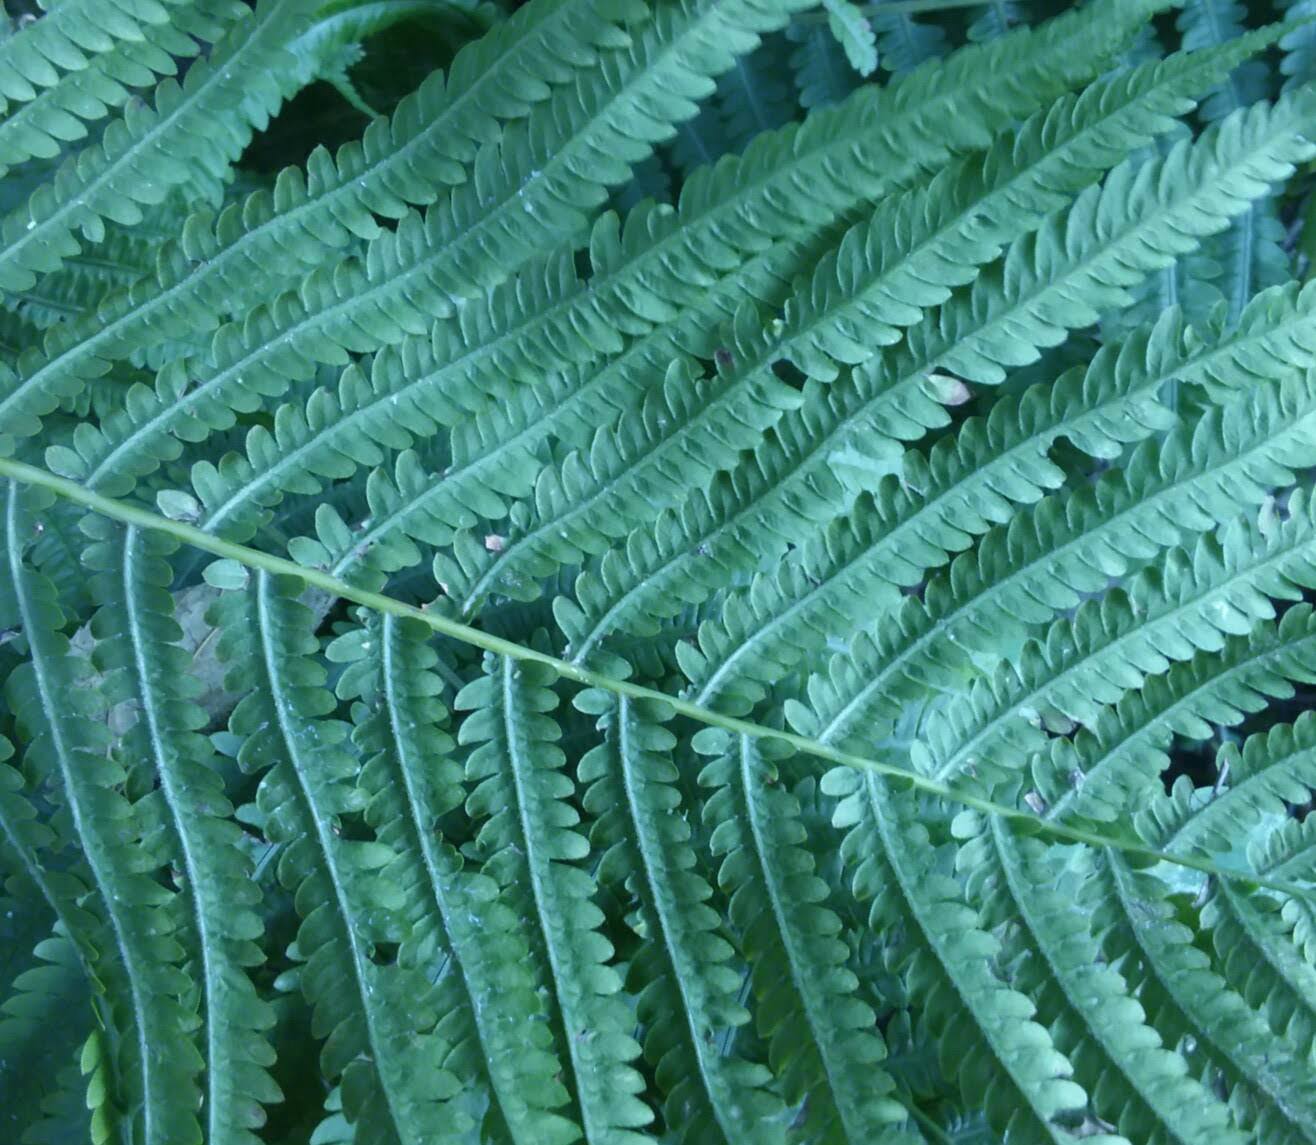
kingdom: Plantae
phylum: Tracheophyta
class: Polypodiopsida
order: Polypodiales
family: Onocleaceae
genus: Matteuccia
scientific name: Matteuccia struthiopteris
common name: Ostrich fern
